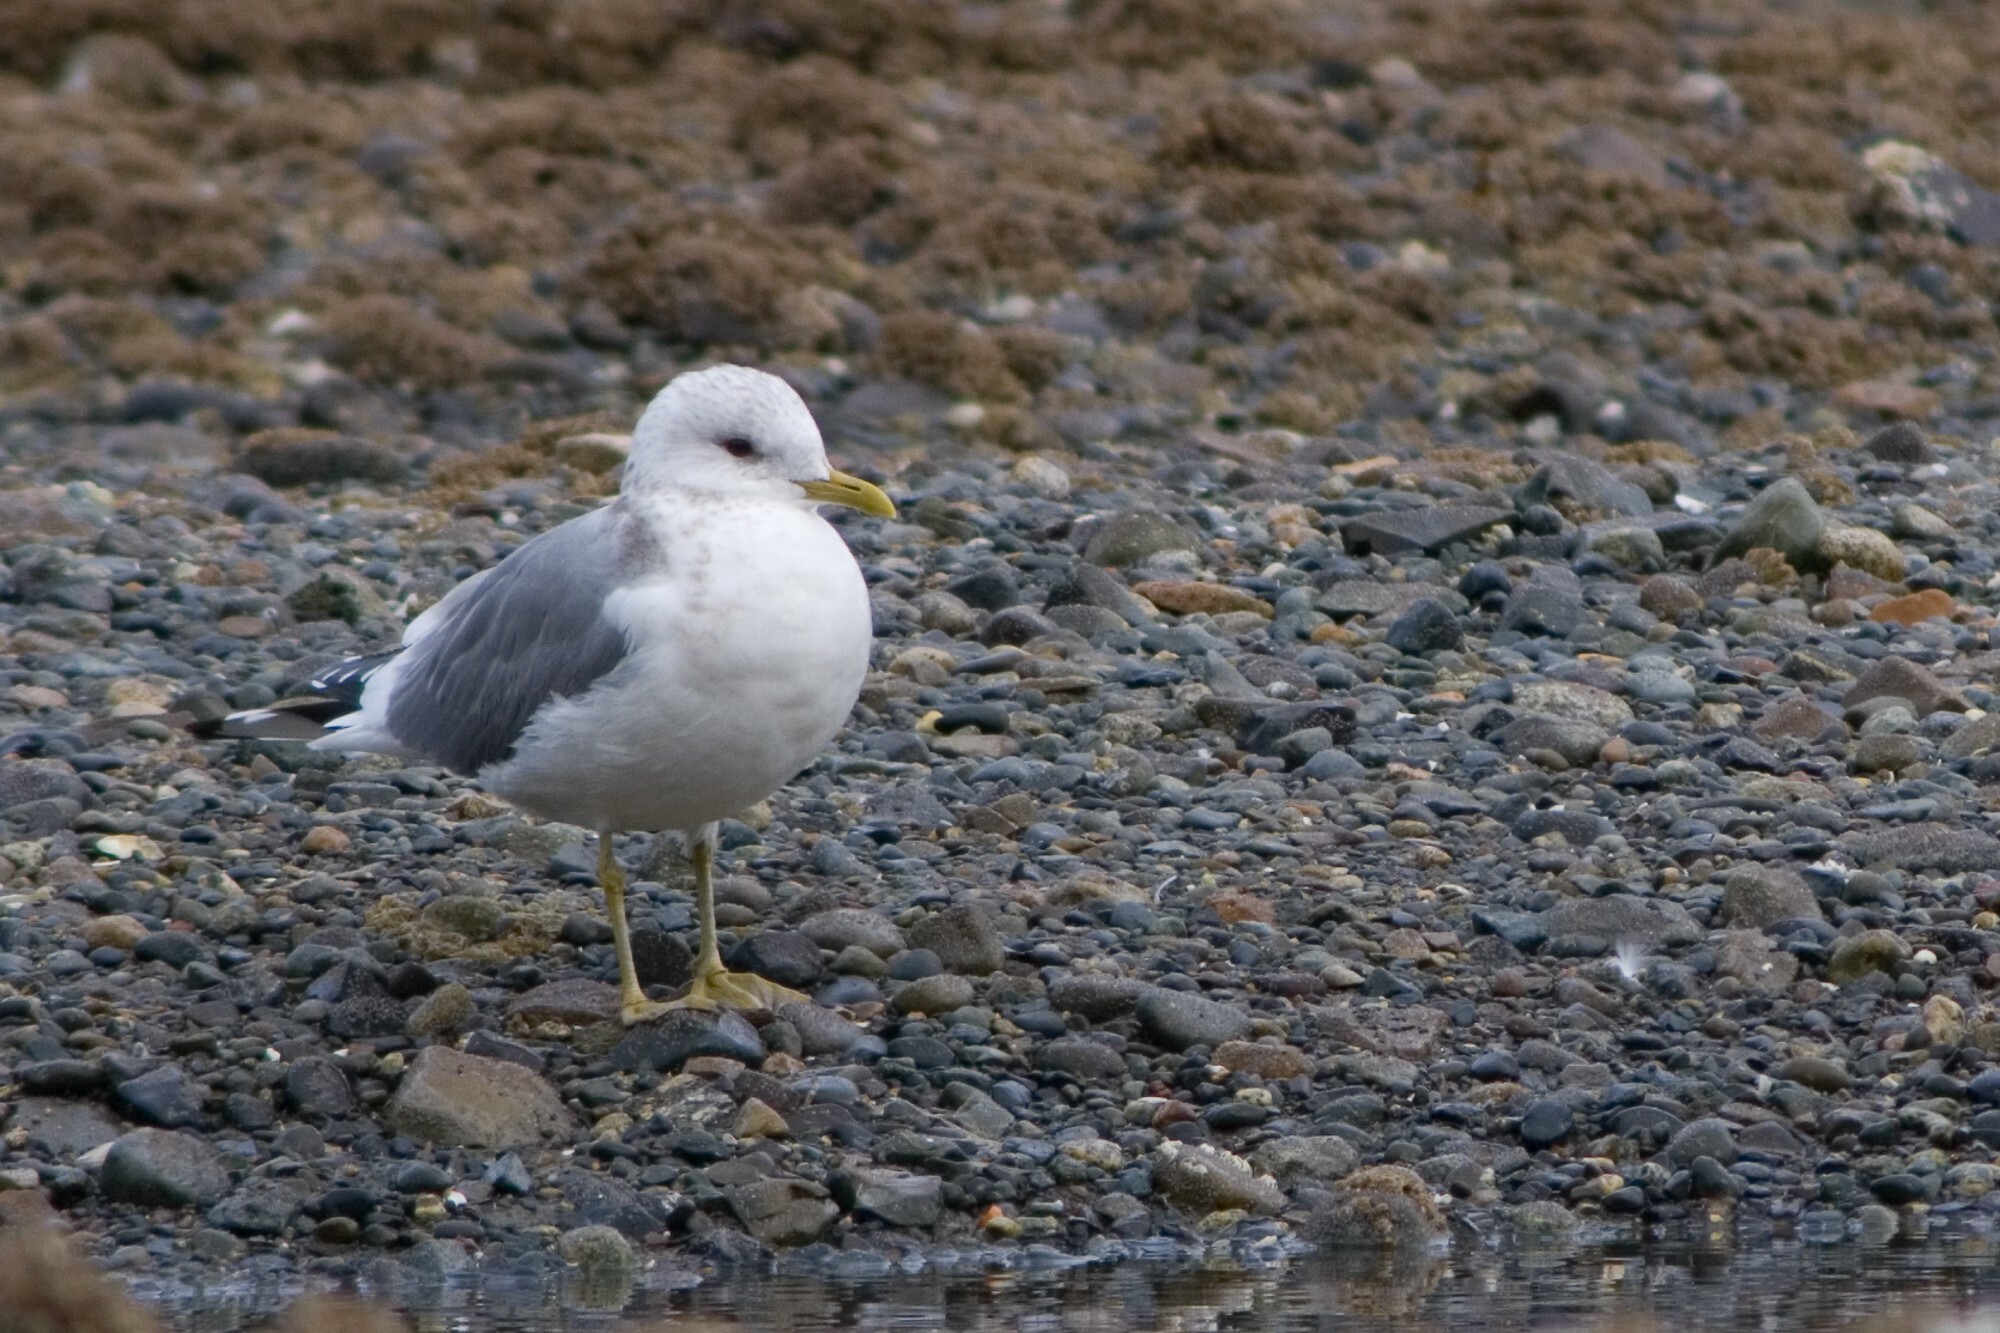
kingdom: Animalia
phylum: Chordata
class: Aves
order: Charadriiformes
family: Laridae
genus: Larus
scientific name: Larus brachyrhynchus
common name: Short-billed gull
